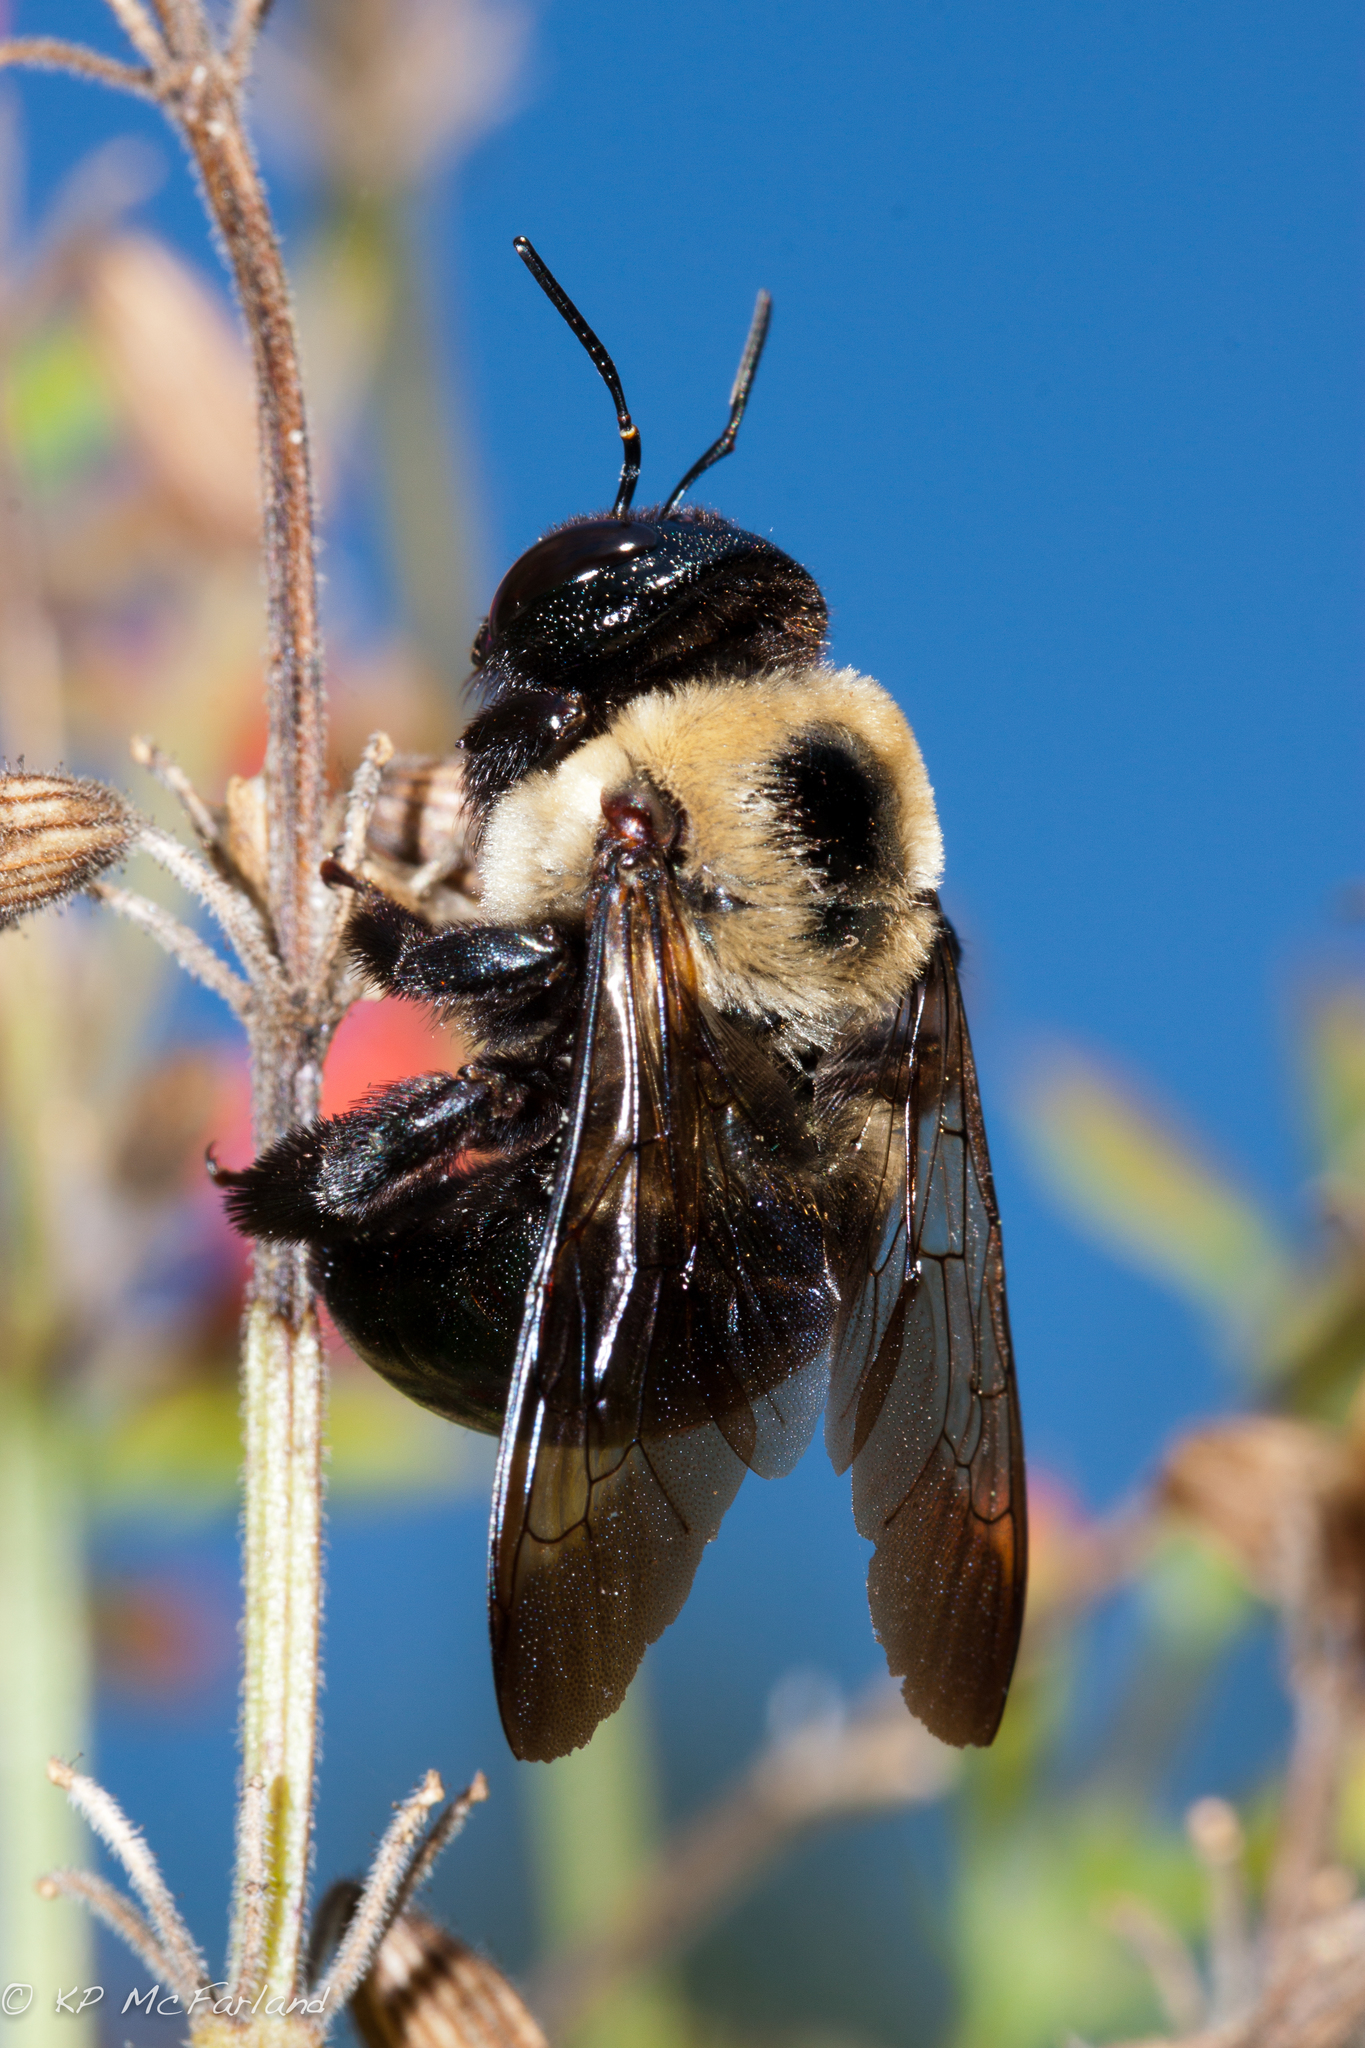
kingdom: Animalia
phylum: Arthropoda
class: Insecta
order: Hymenoptera
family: Apidae
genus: Xylocopa
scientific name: Xylocopa virginica
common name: Carpenter bee
